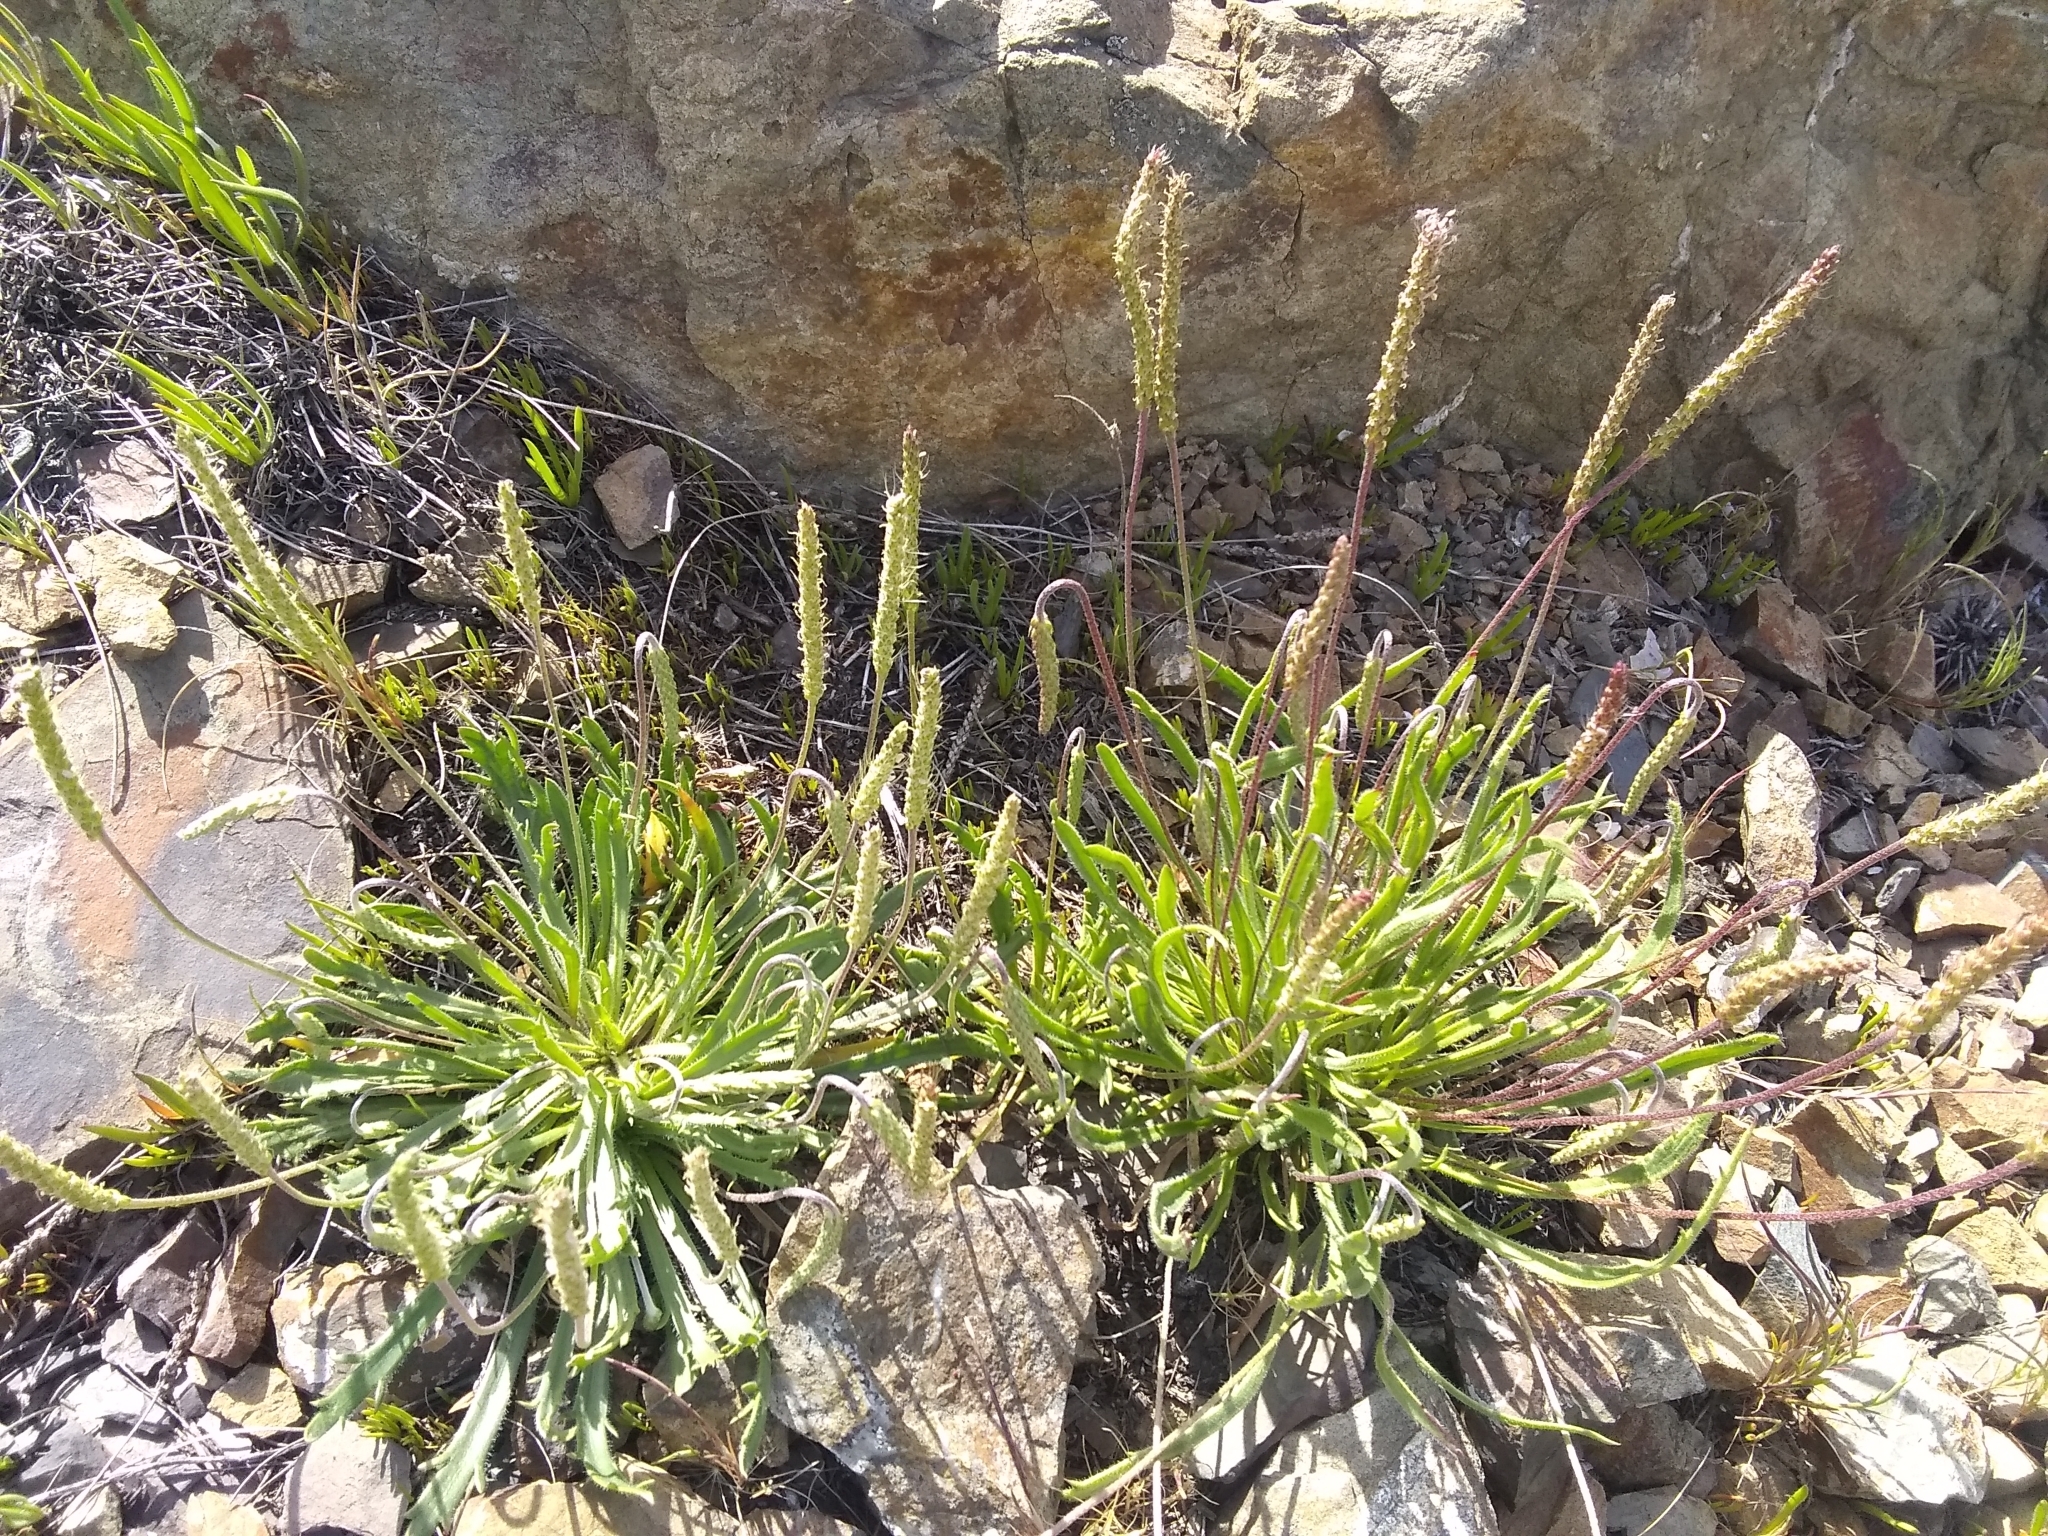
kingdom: Plantae
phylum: Tracheophyta
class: Magnoliopsida
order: Lamiales
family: Plantaginaceae
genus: Plantago
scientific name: Plantago coronopus
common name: Buck's-horn plantain
